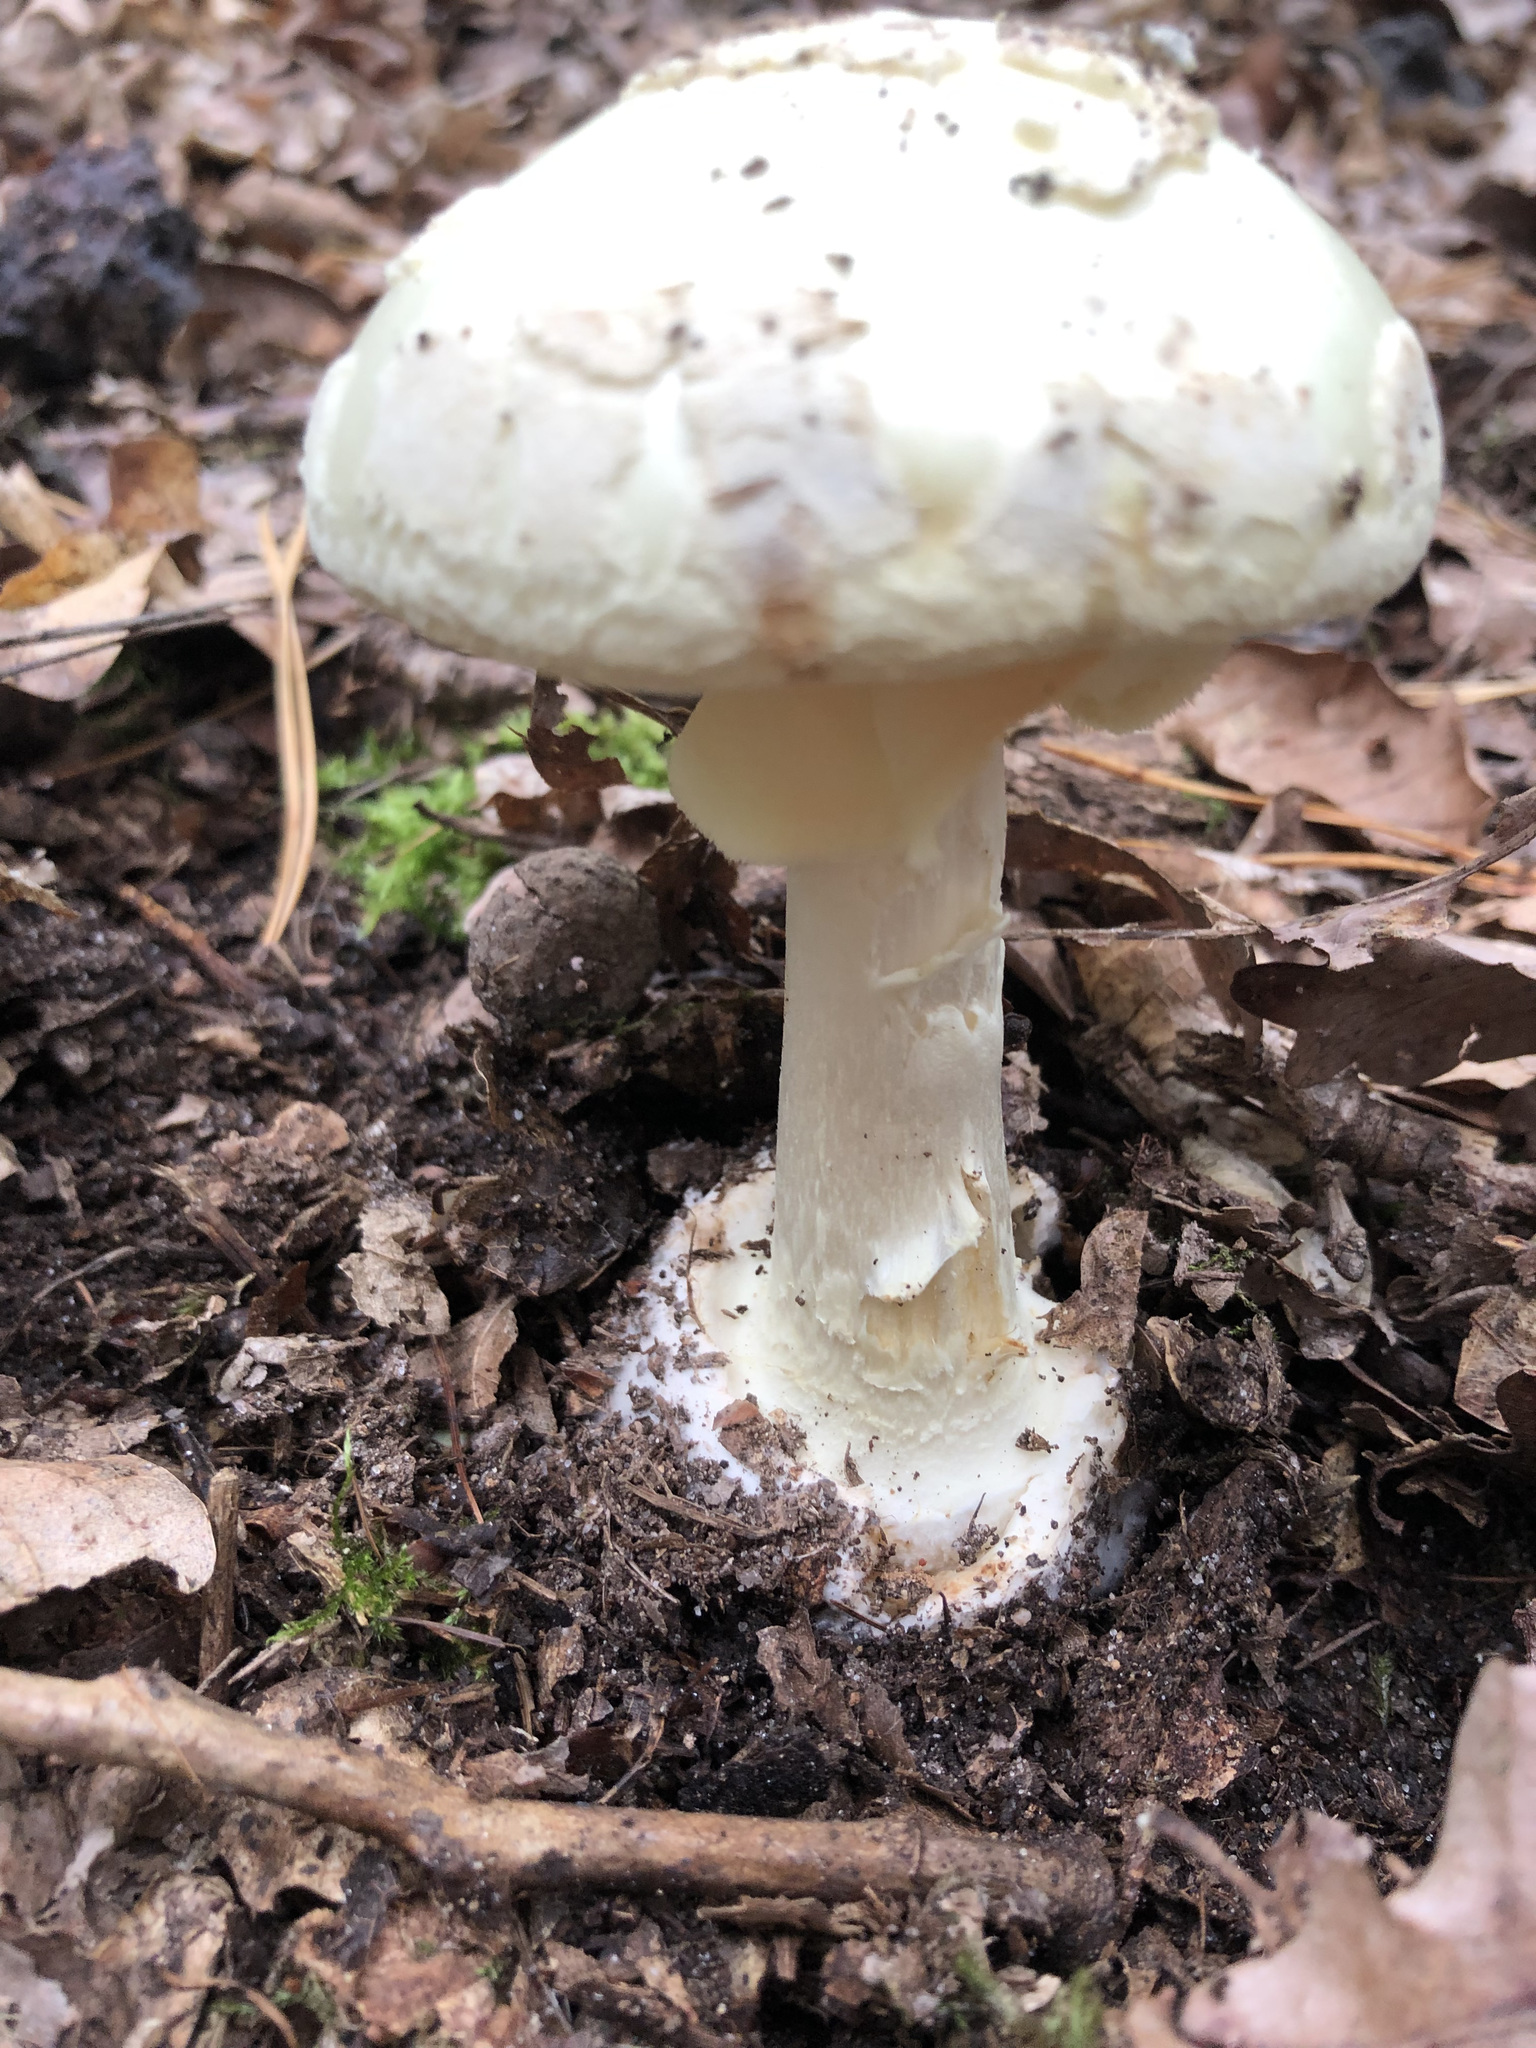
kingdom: Fungi
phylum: Basidiomycota
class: Agaricomycetes
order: Agaricales
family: Amanitaceae
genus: Amanita
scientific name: Amanita citrina
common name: False death-cap
